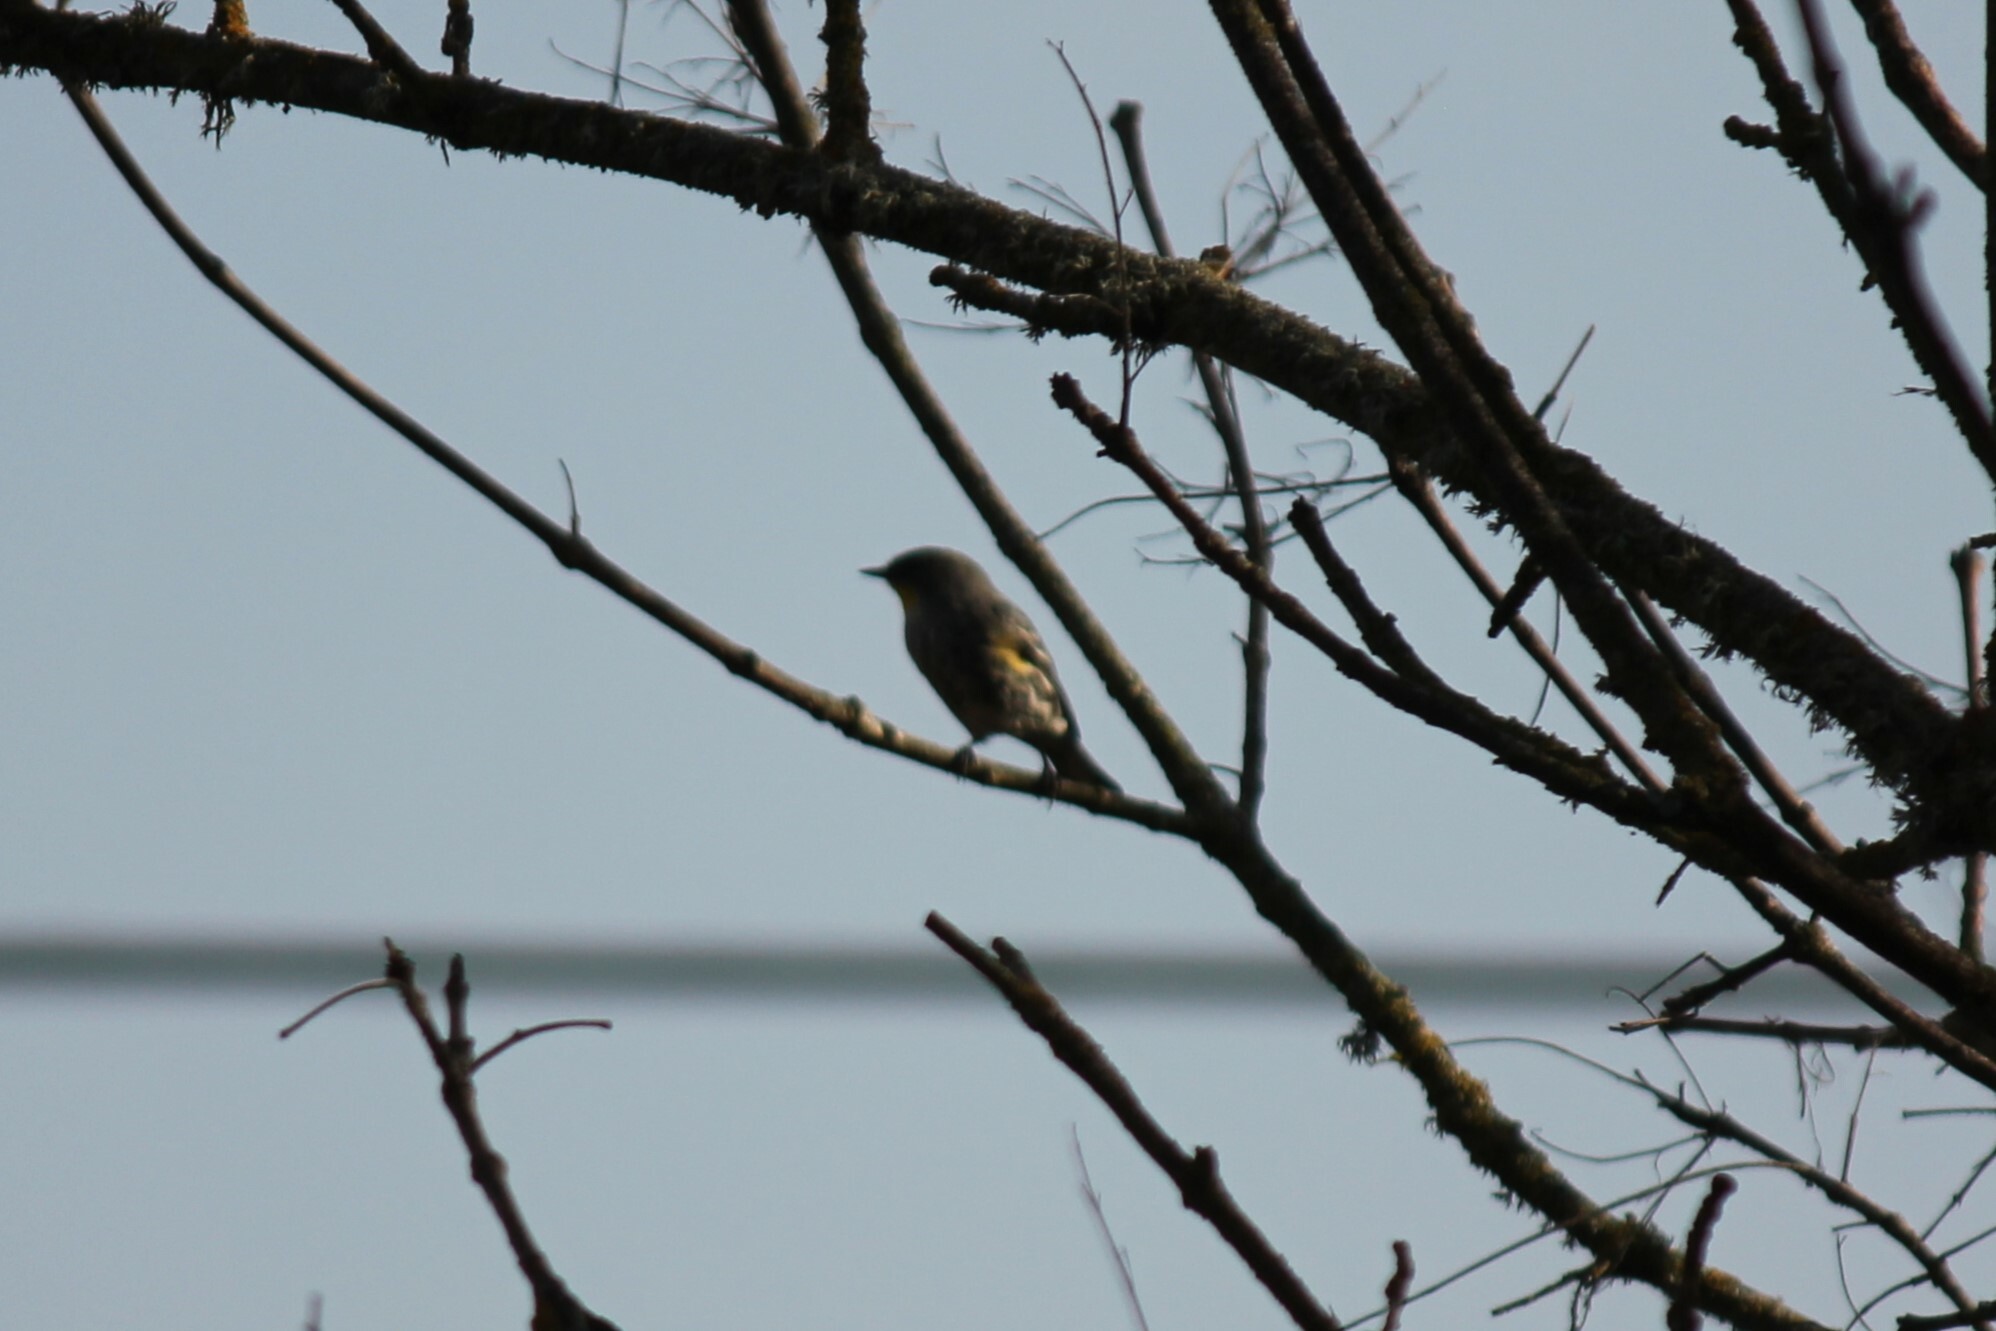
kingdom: Animalia
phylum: Chordata
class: Aves
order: Passeriformes
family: Parulidae
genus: Setophaga
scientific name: Setophaga coronata
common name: Myrtle warbler
